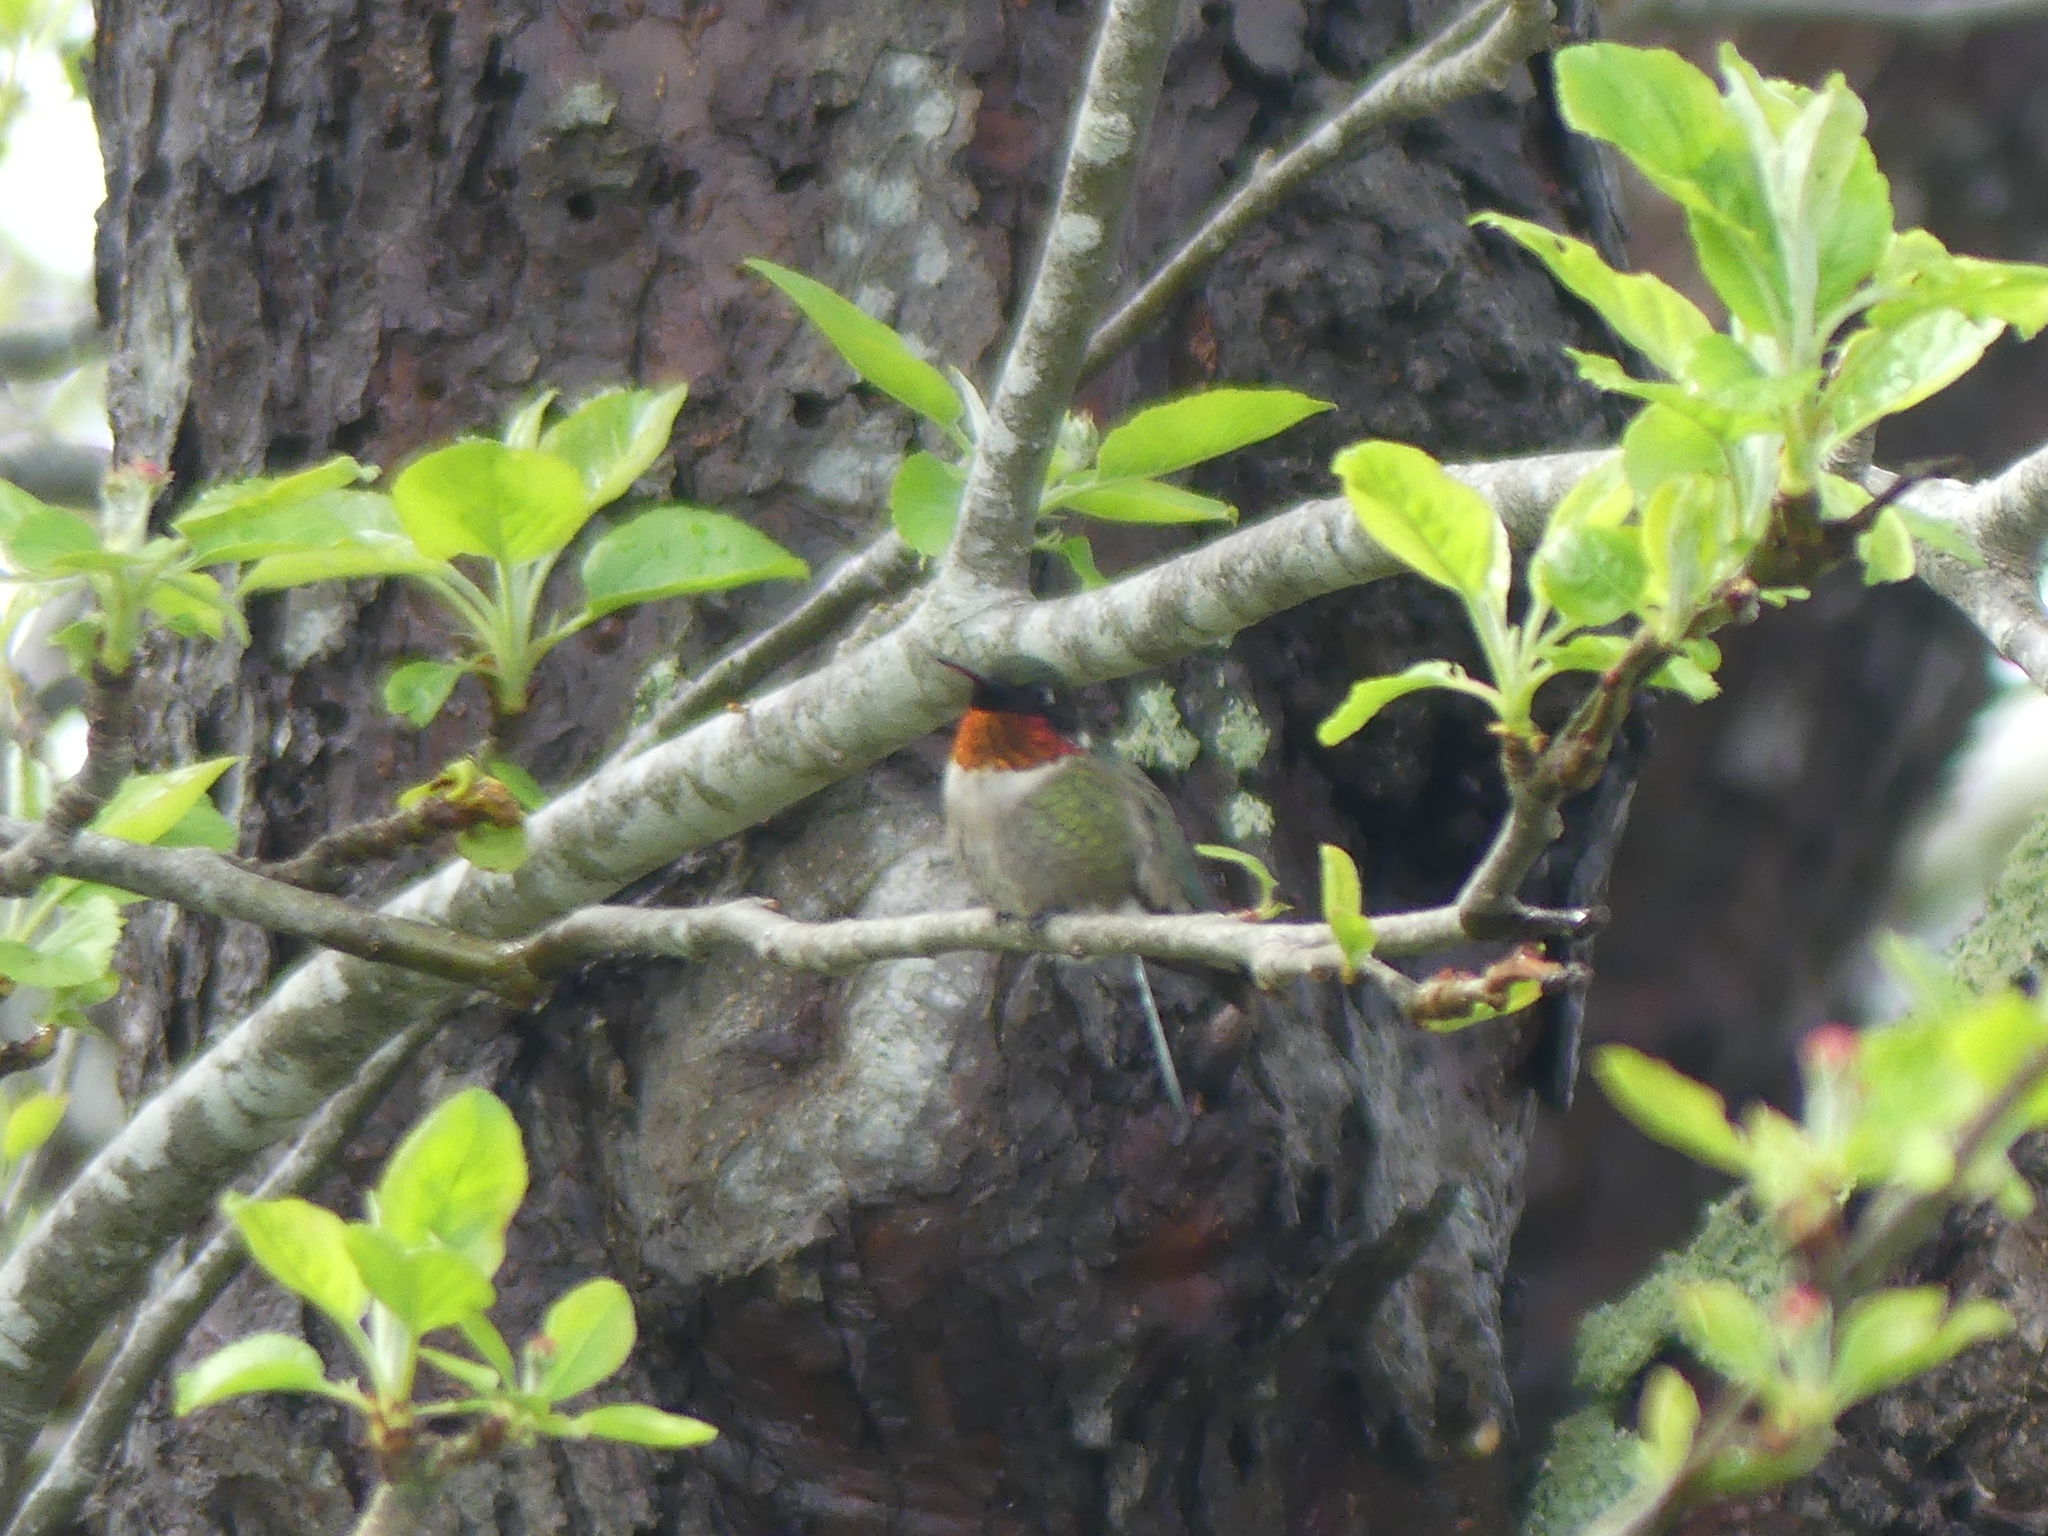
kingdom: Animalia
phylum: Chordata
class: Aves
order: Apodiformes
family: Trochilidae
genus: Archilochus
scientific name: Archilochus colubris
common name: Ruby-throated hummingbird
